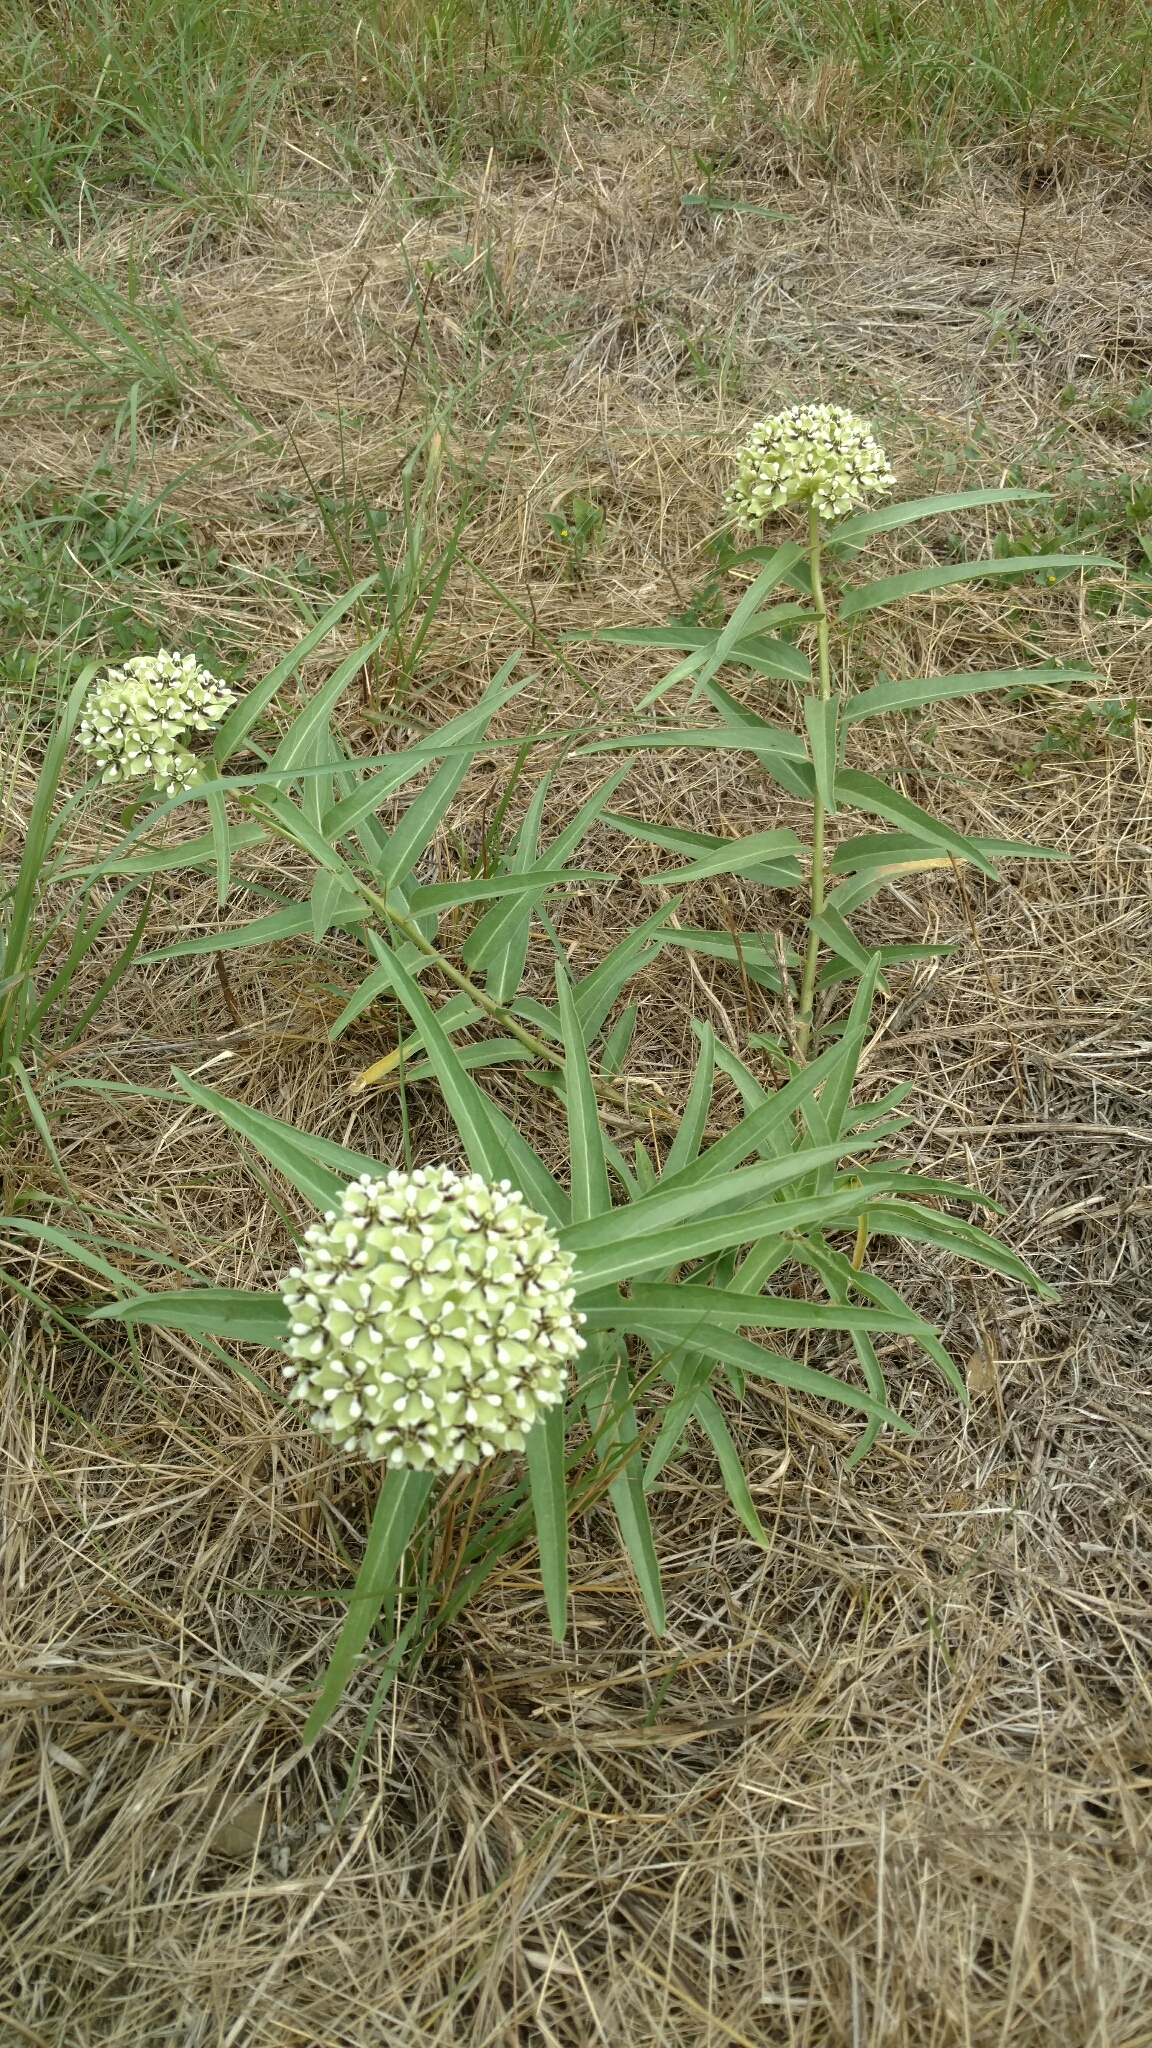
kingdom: Plantae
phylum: Tracheophyta
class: Magnoliopsida
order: Gentianales
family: Apocynaceae
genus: Asclepias
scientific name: Asclepias asperula
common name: Antelope horns
